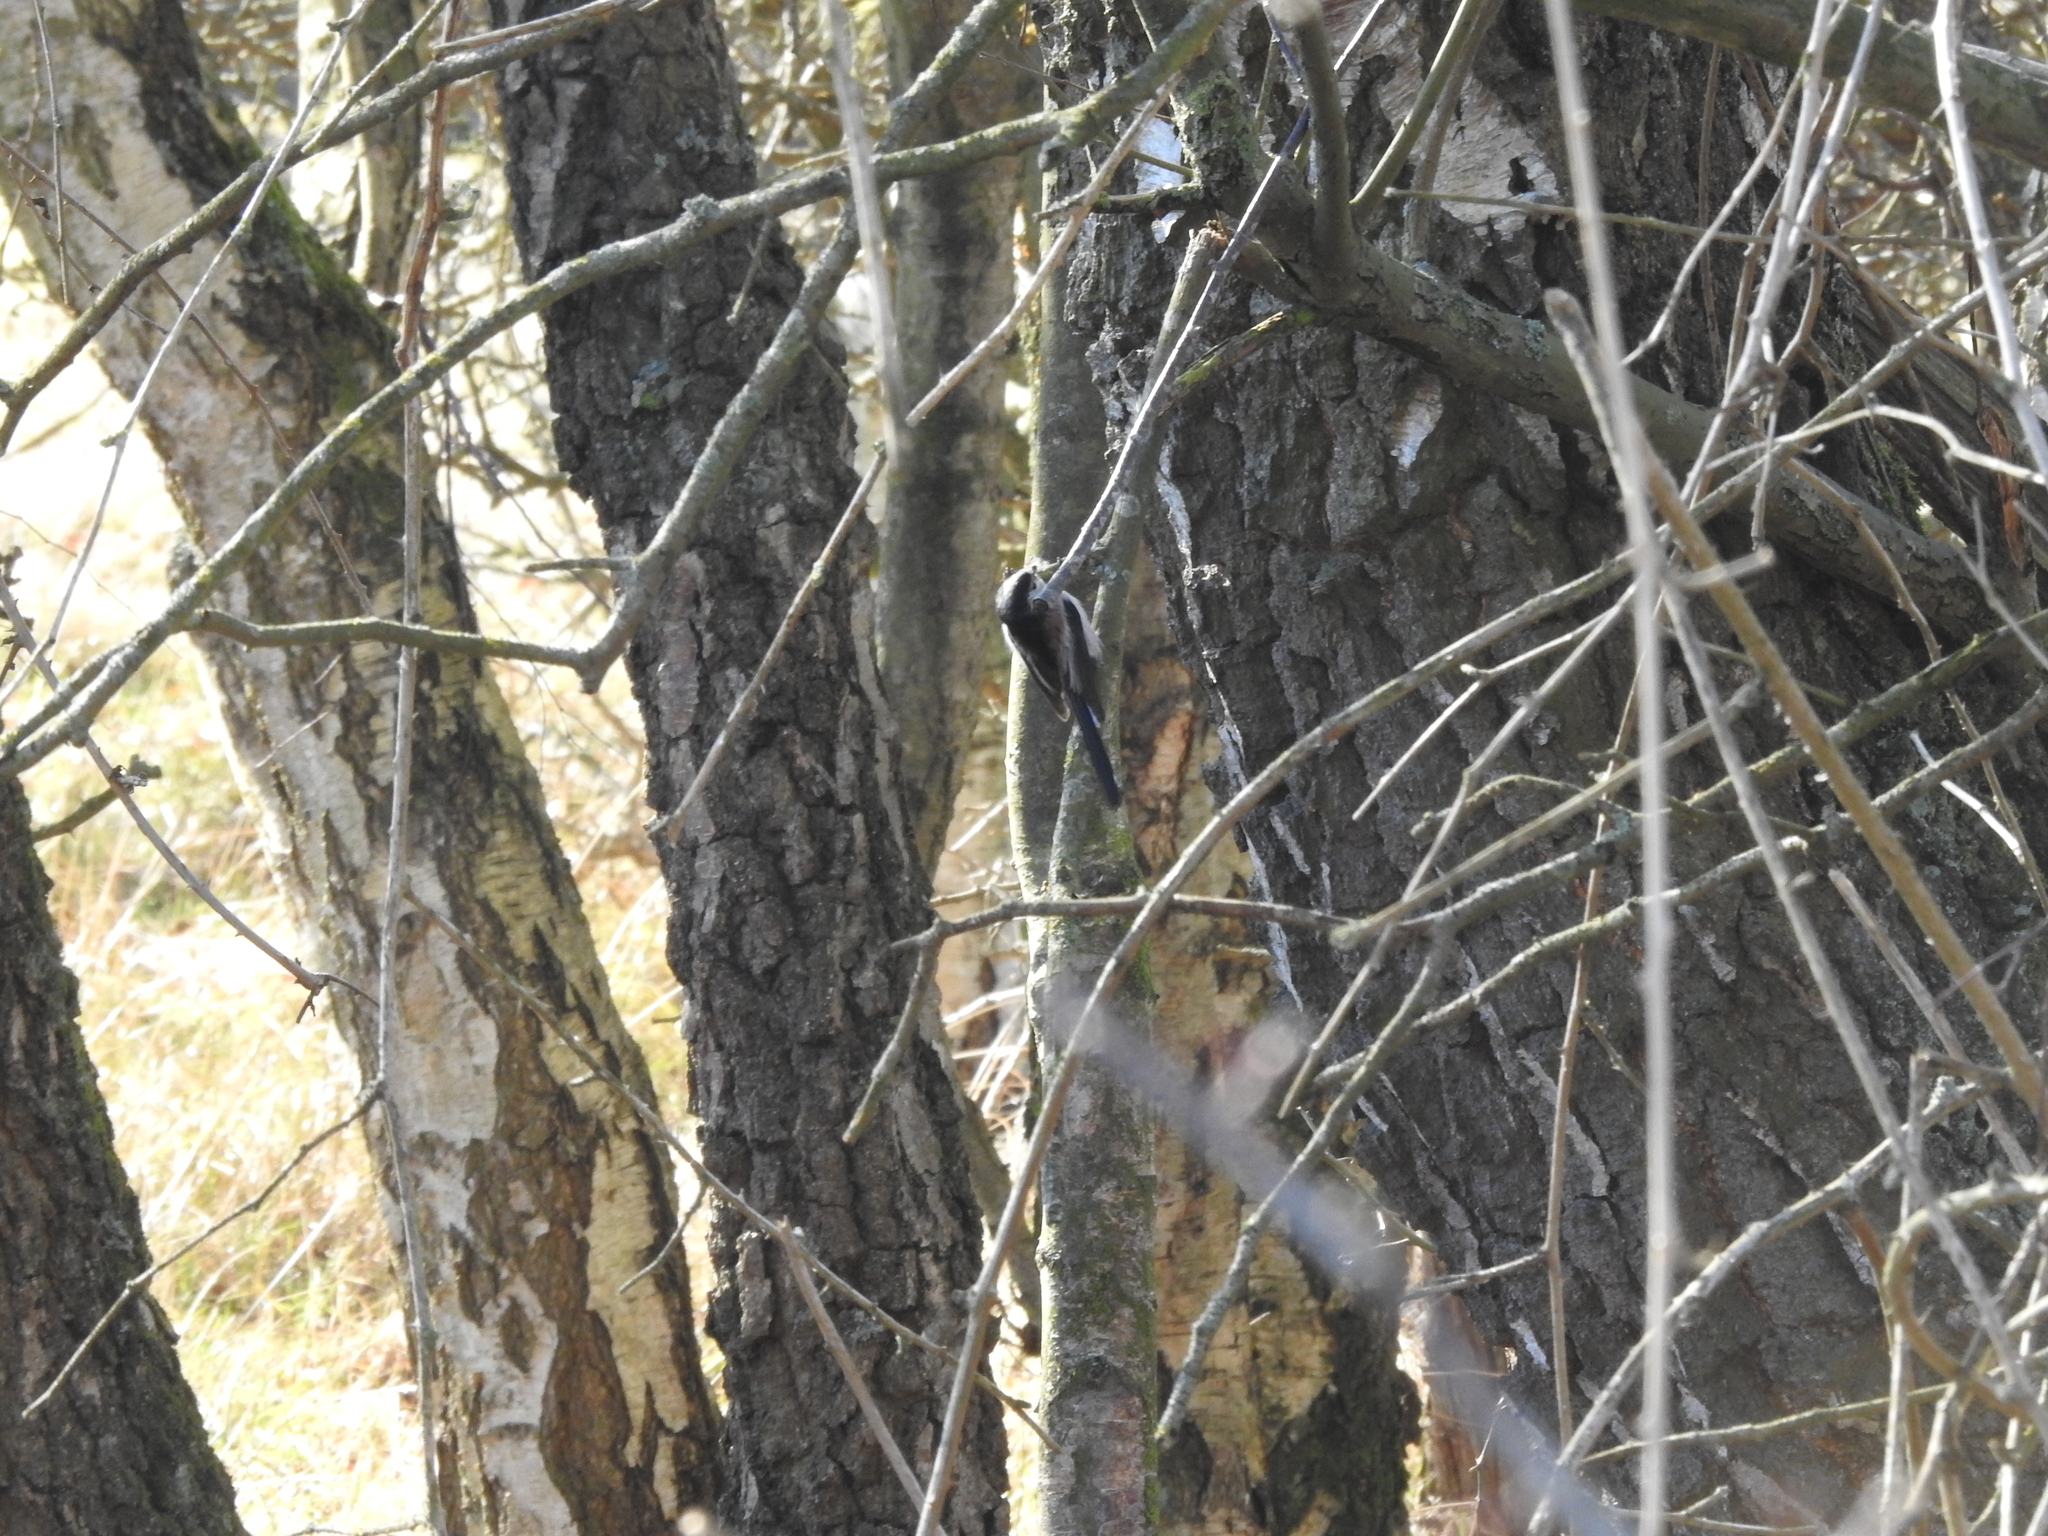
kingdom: Animalia
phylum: Chordata
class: Aves
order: Passeriformes
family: Aegithalidae
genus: Aegithalos
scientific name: Aegithalos caudatus
